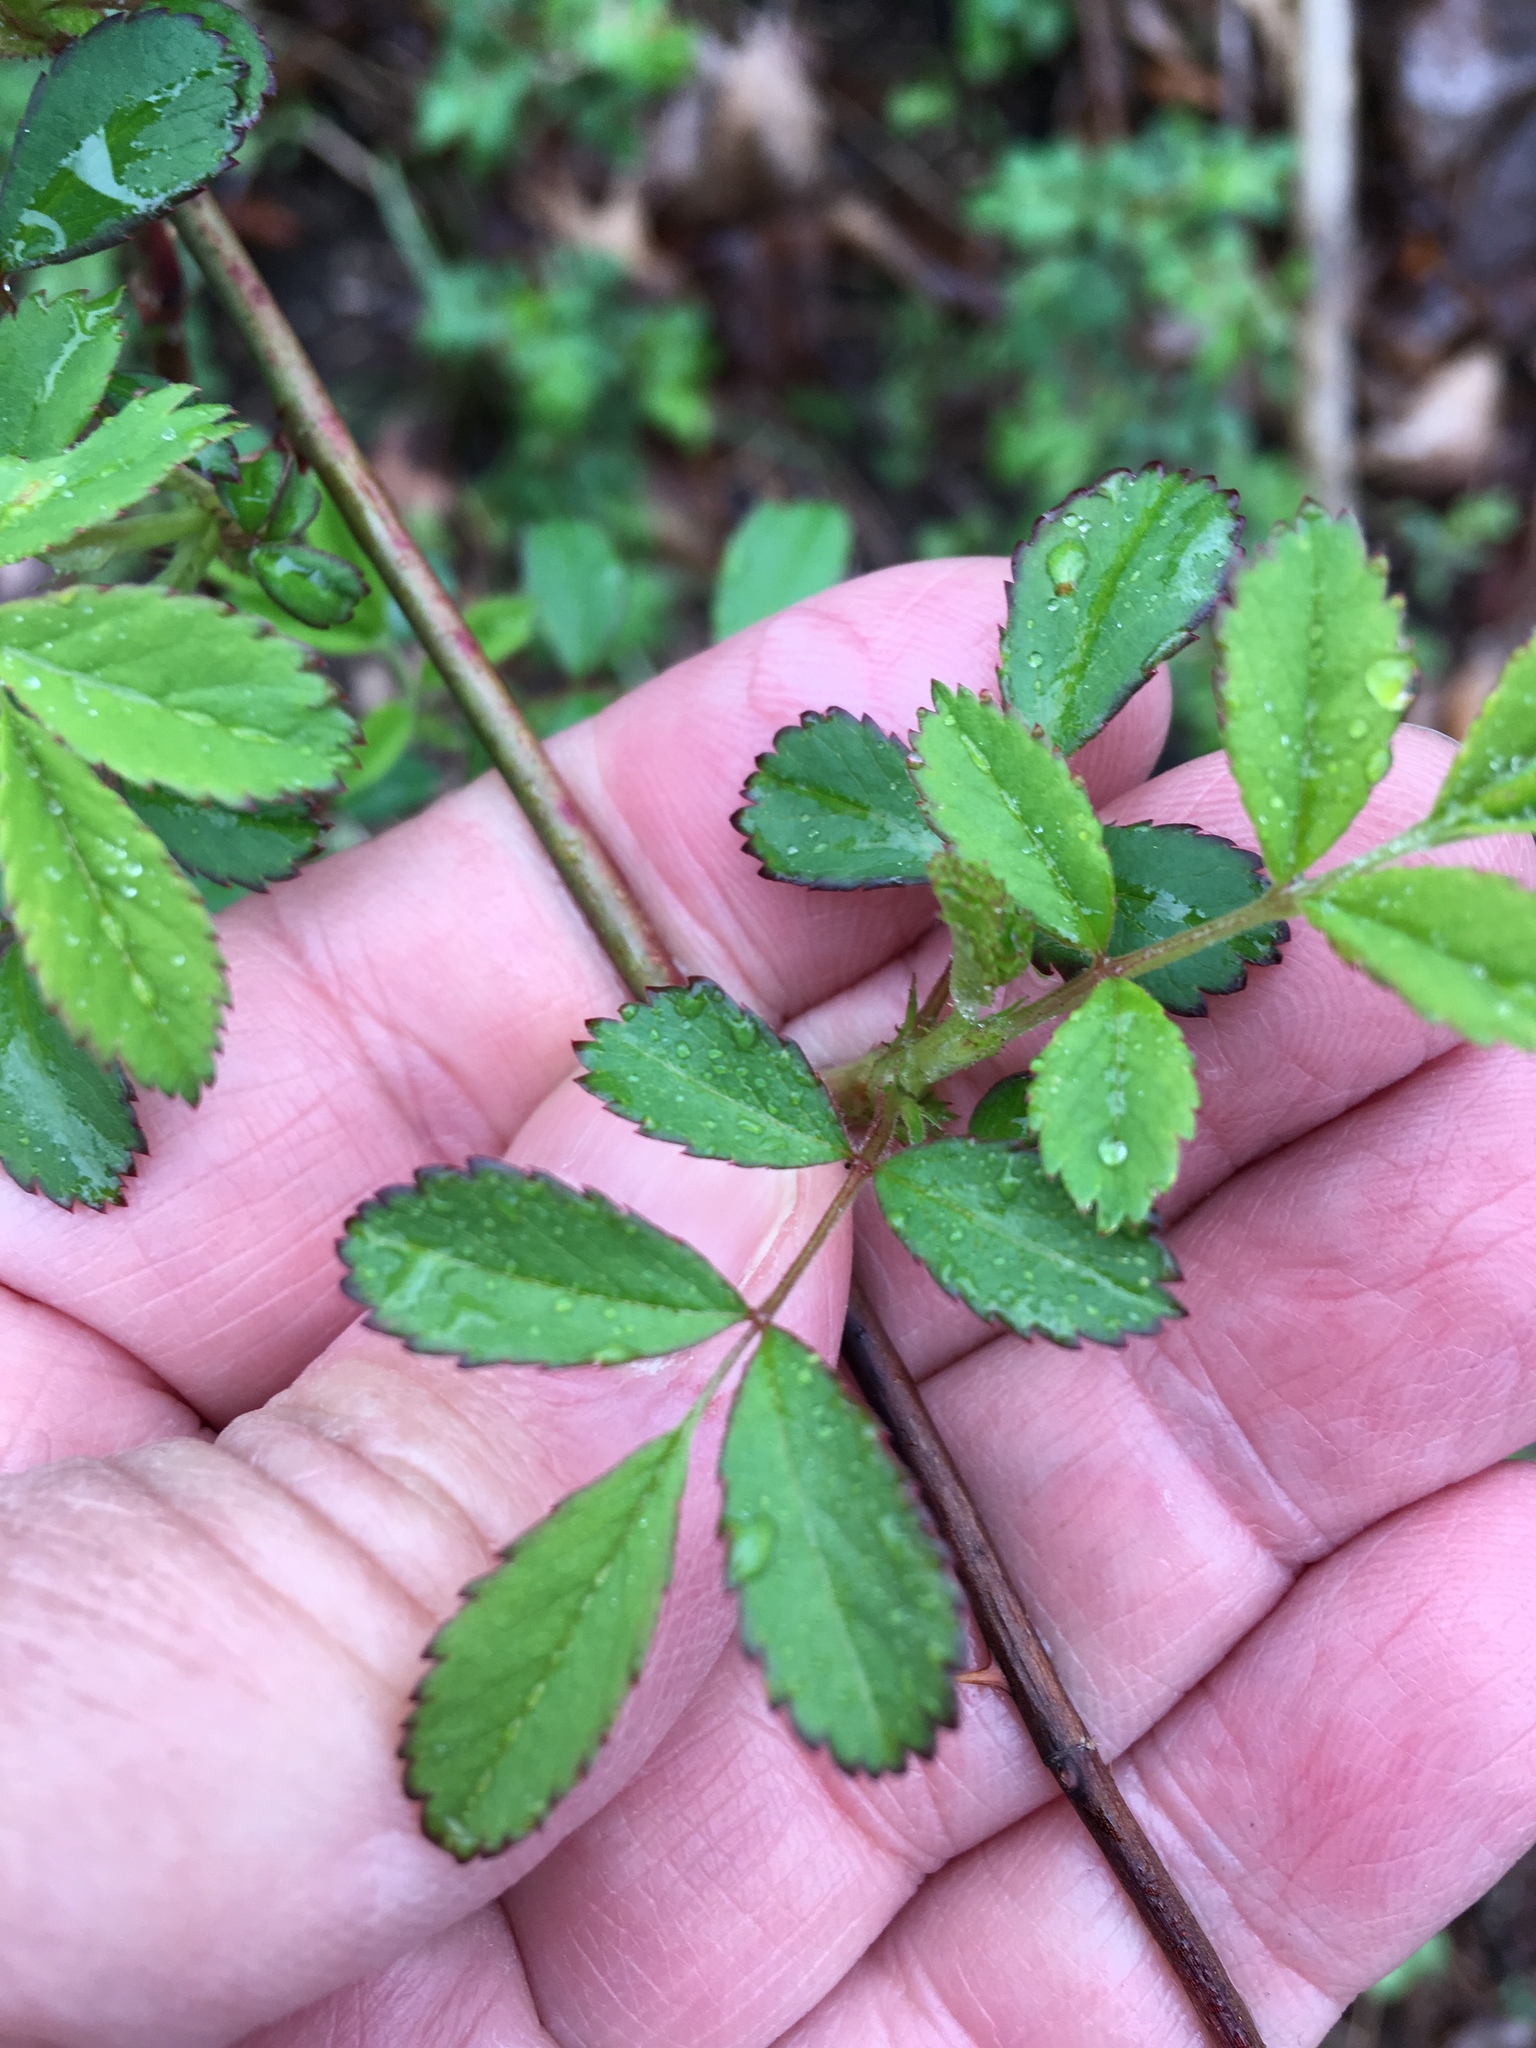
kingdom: Plantae
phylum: Tracheophyta
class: Magnoliopsida
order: Rosales
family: Rosaceae
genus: Rosa
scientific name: Rosa multiflora
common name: Multiflora rose
